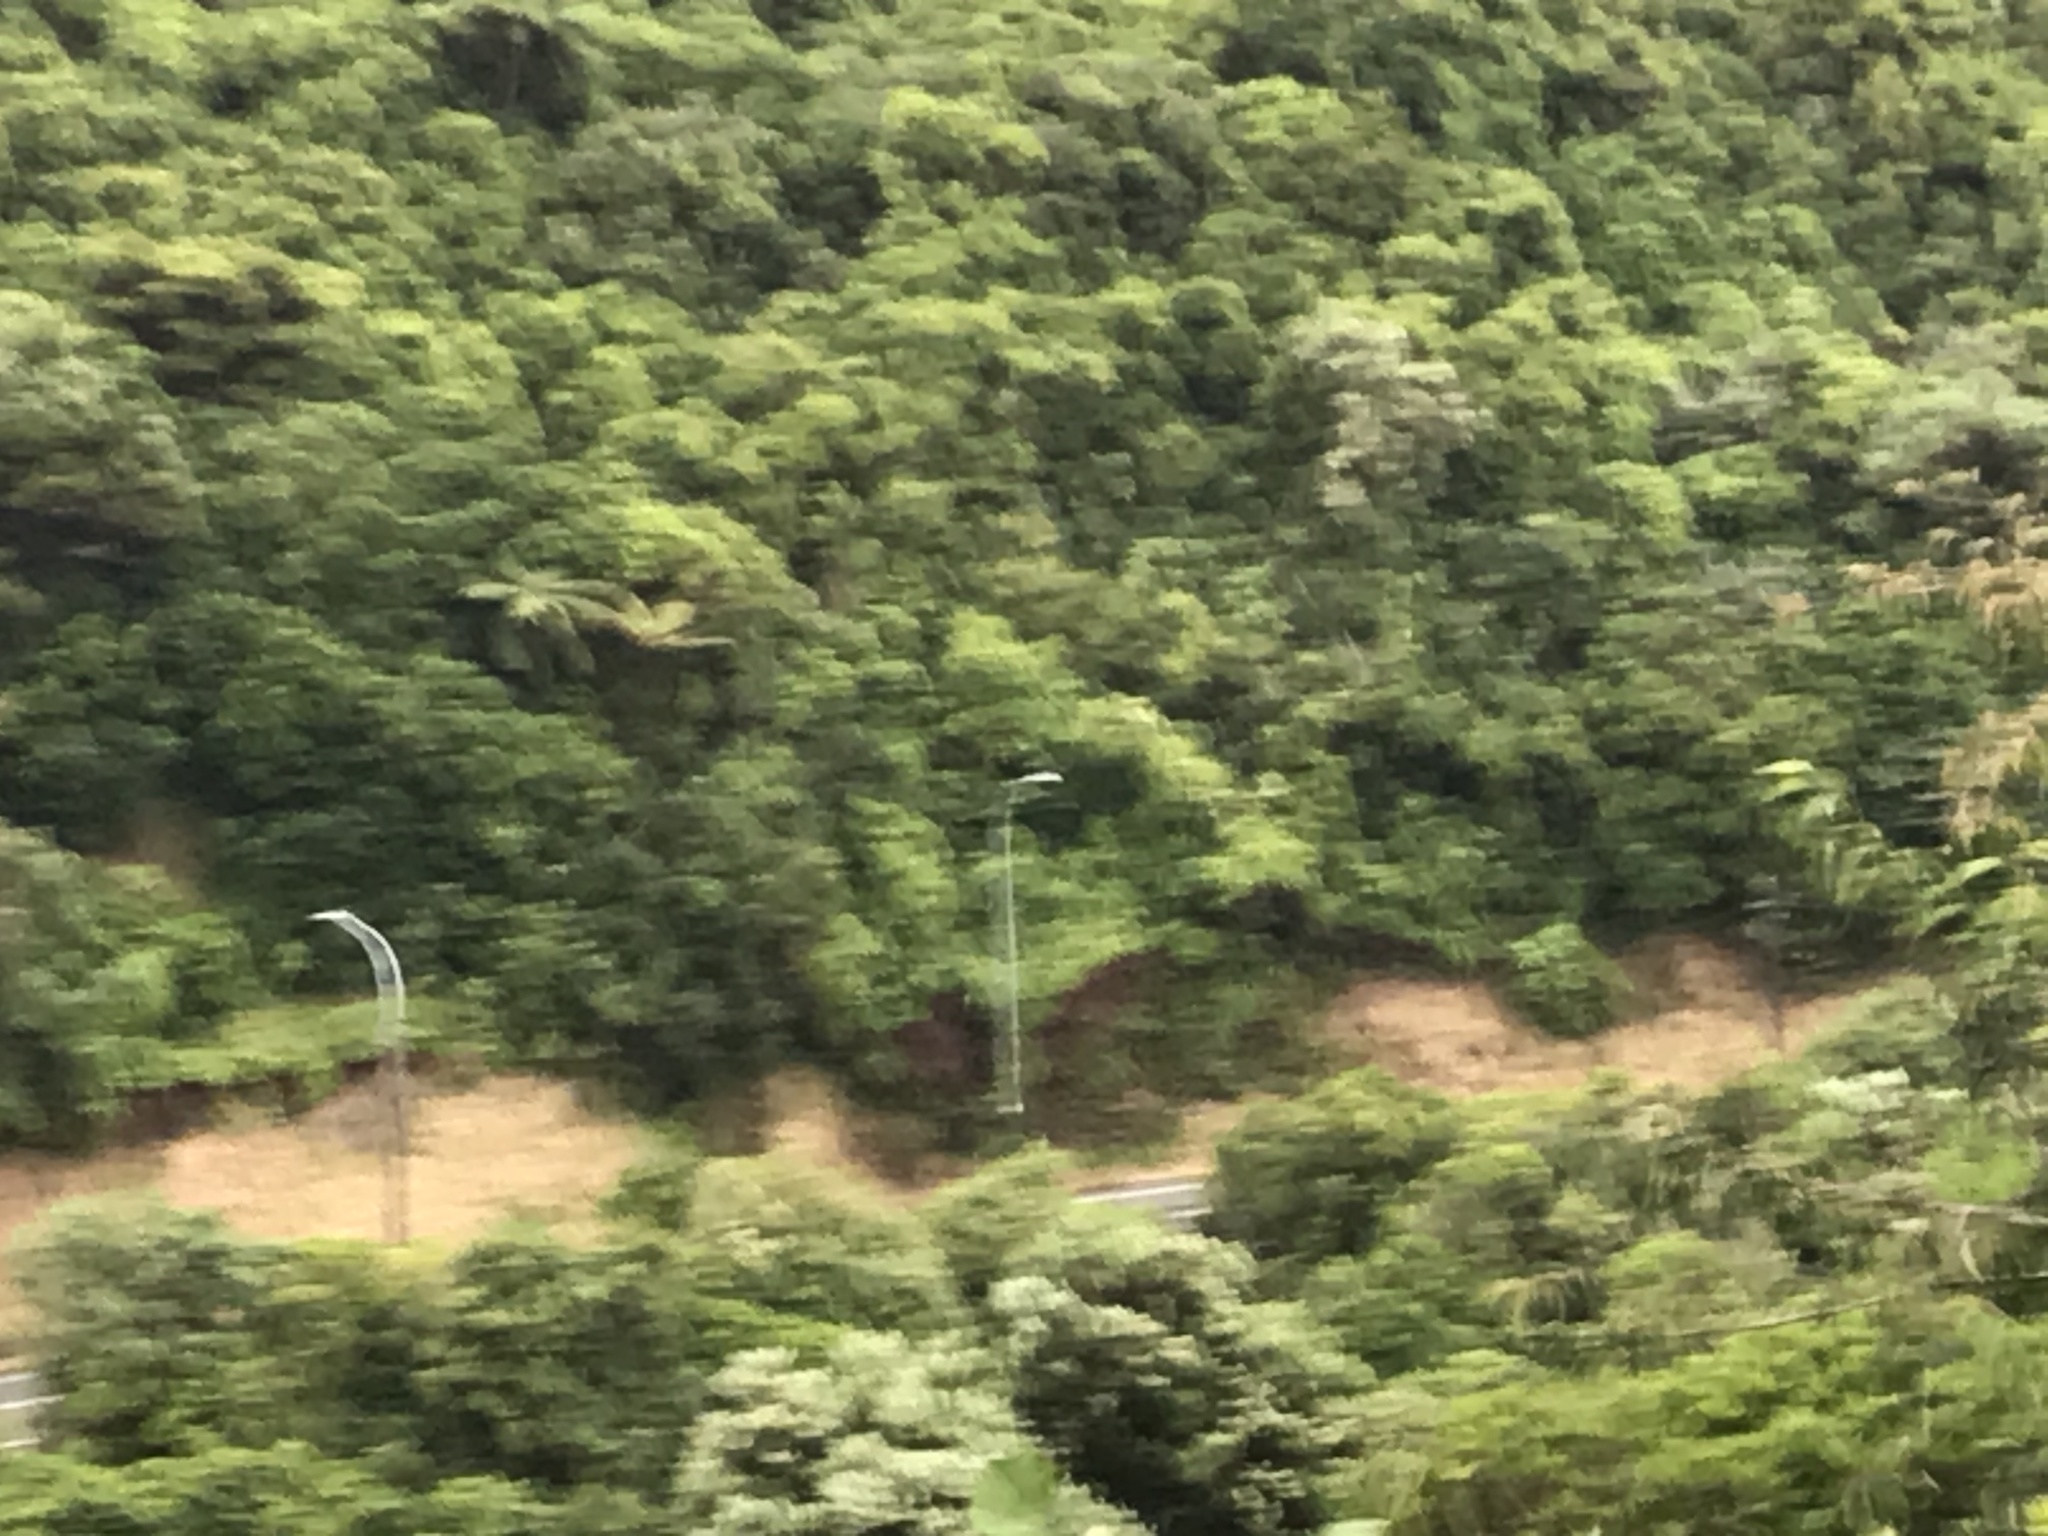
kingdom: Plantae
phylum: Tracheophyta
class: Magnoliopsida
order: Ranunculales
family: Ranunculaceae
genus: Clematis
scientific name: Clematis vitalba
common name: Evergreen clematis
